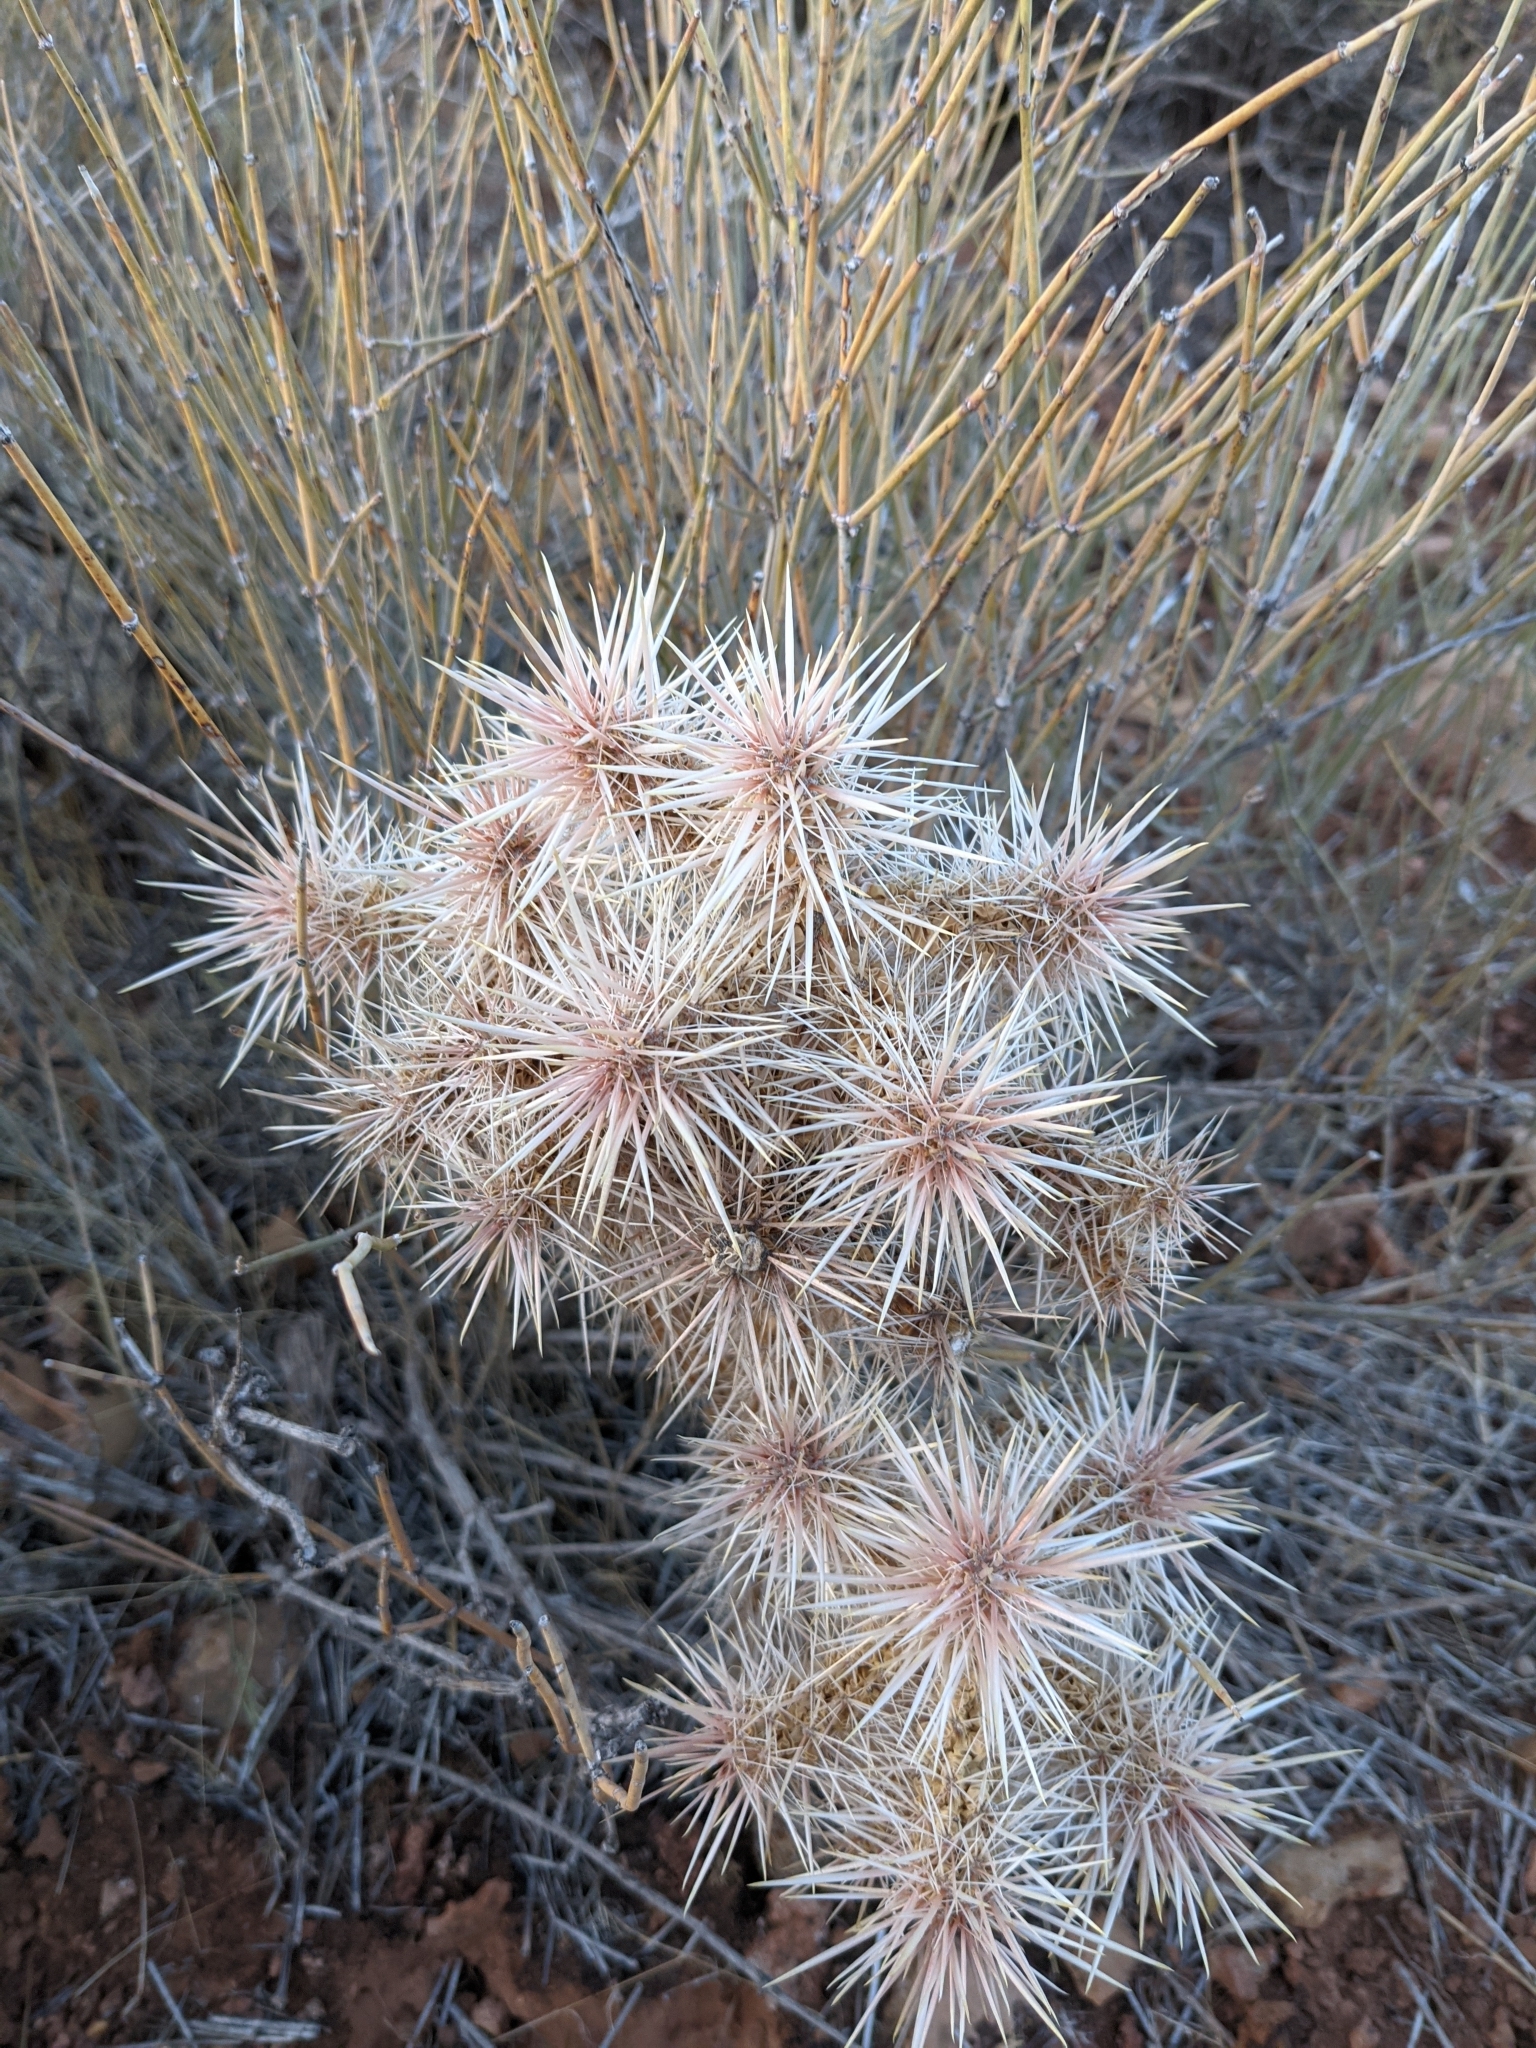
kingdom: Plantae
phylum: Tracheophyta
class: Magnoliopsida
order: Caryophyllales
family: Cactaceae
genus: Cylindropuntia
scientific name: Cylindropuntia echinocarpa
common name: Ground cholla
